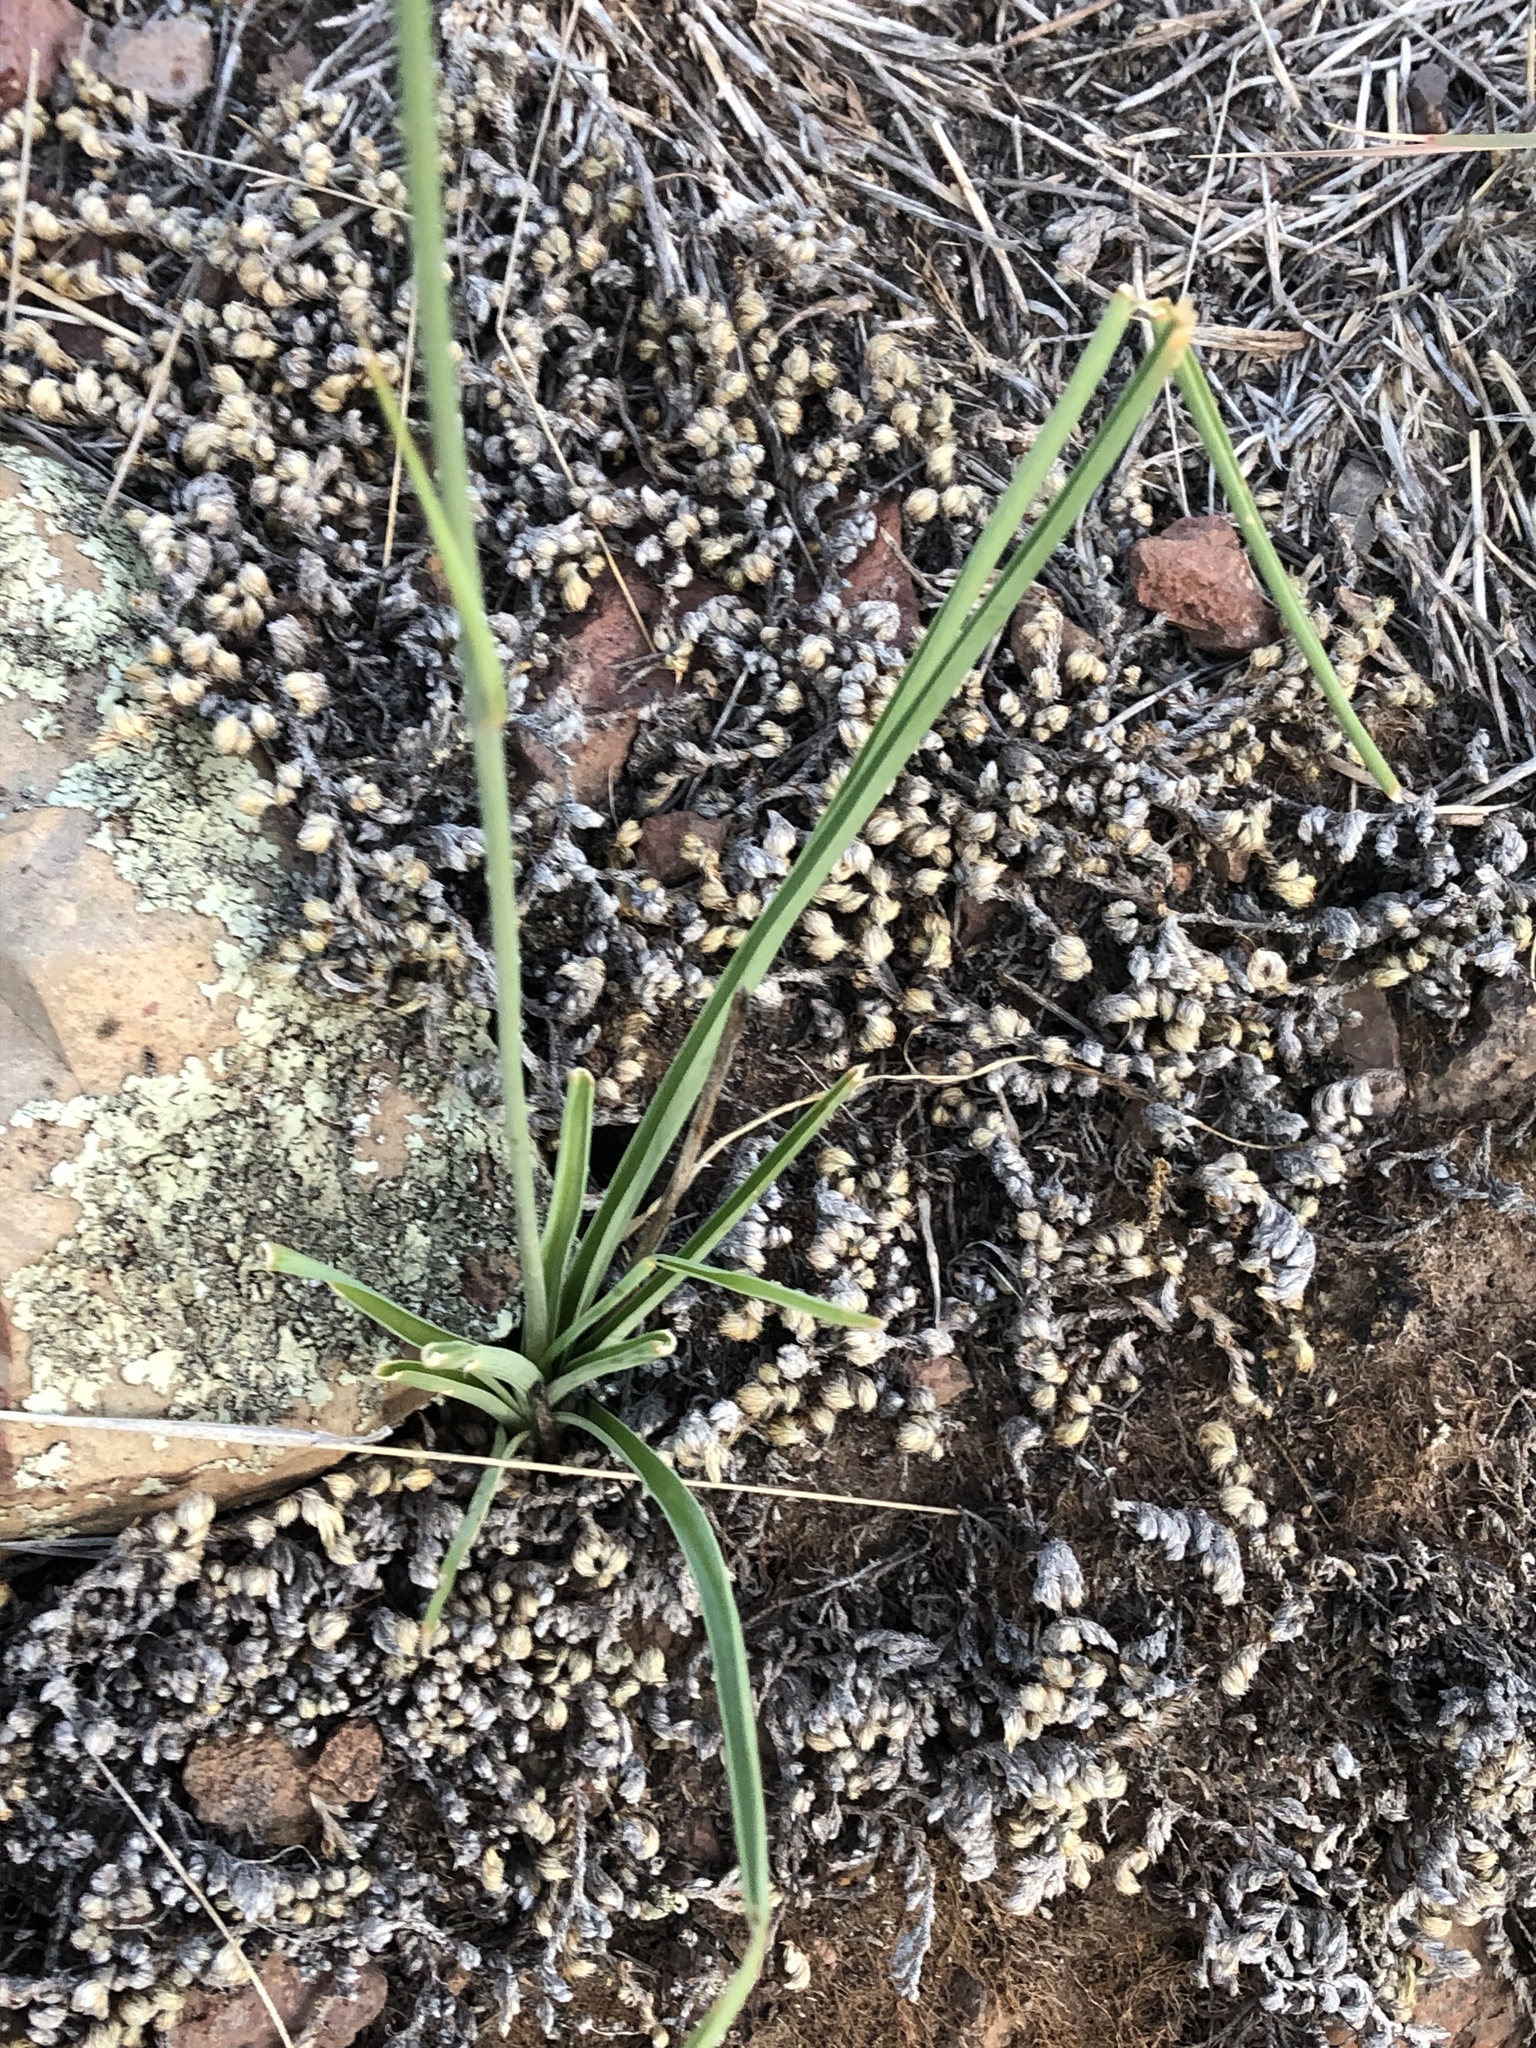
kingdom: Plantae
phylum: Tracheophyta
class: Liliopsida
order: Asparagales
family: Asparagaceae
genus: Echeandia
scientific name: Echeandia flavescens
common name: Amberlily
